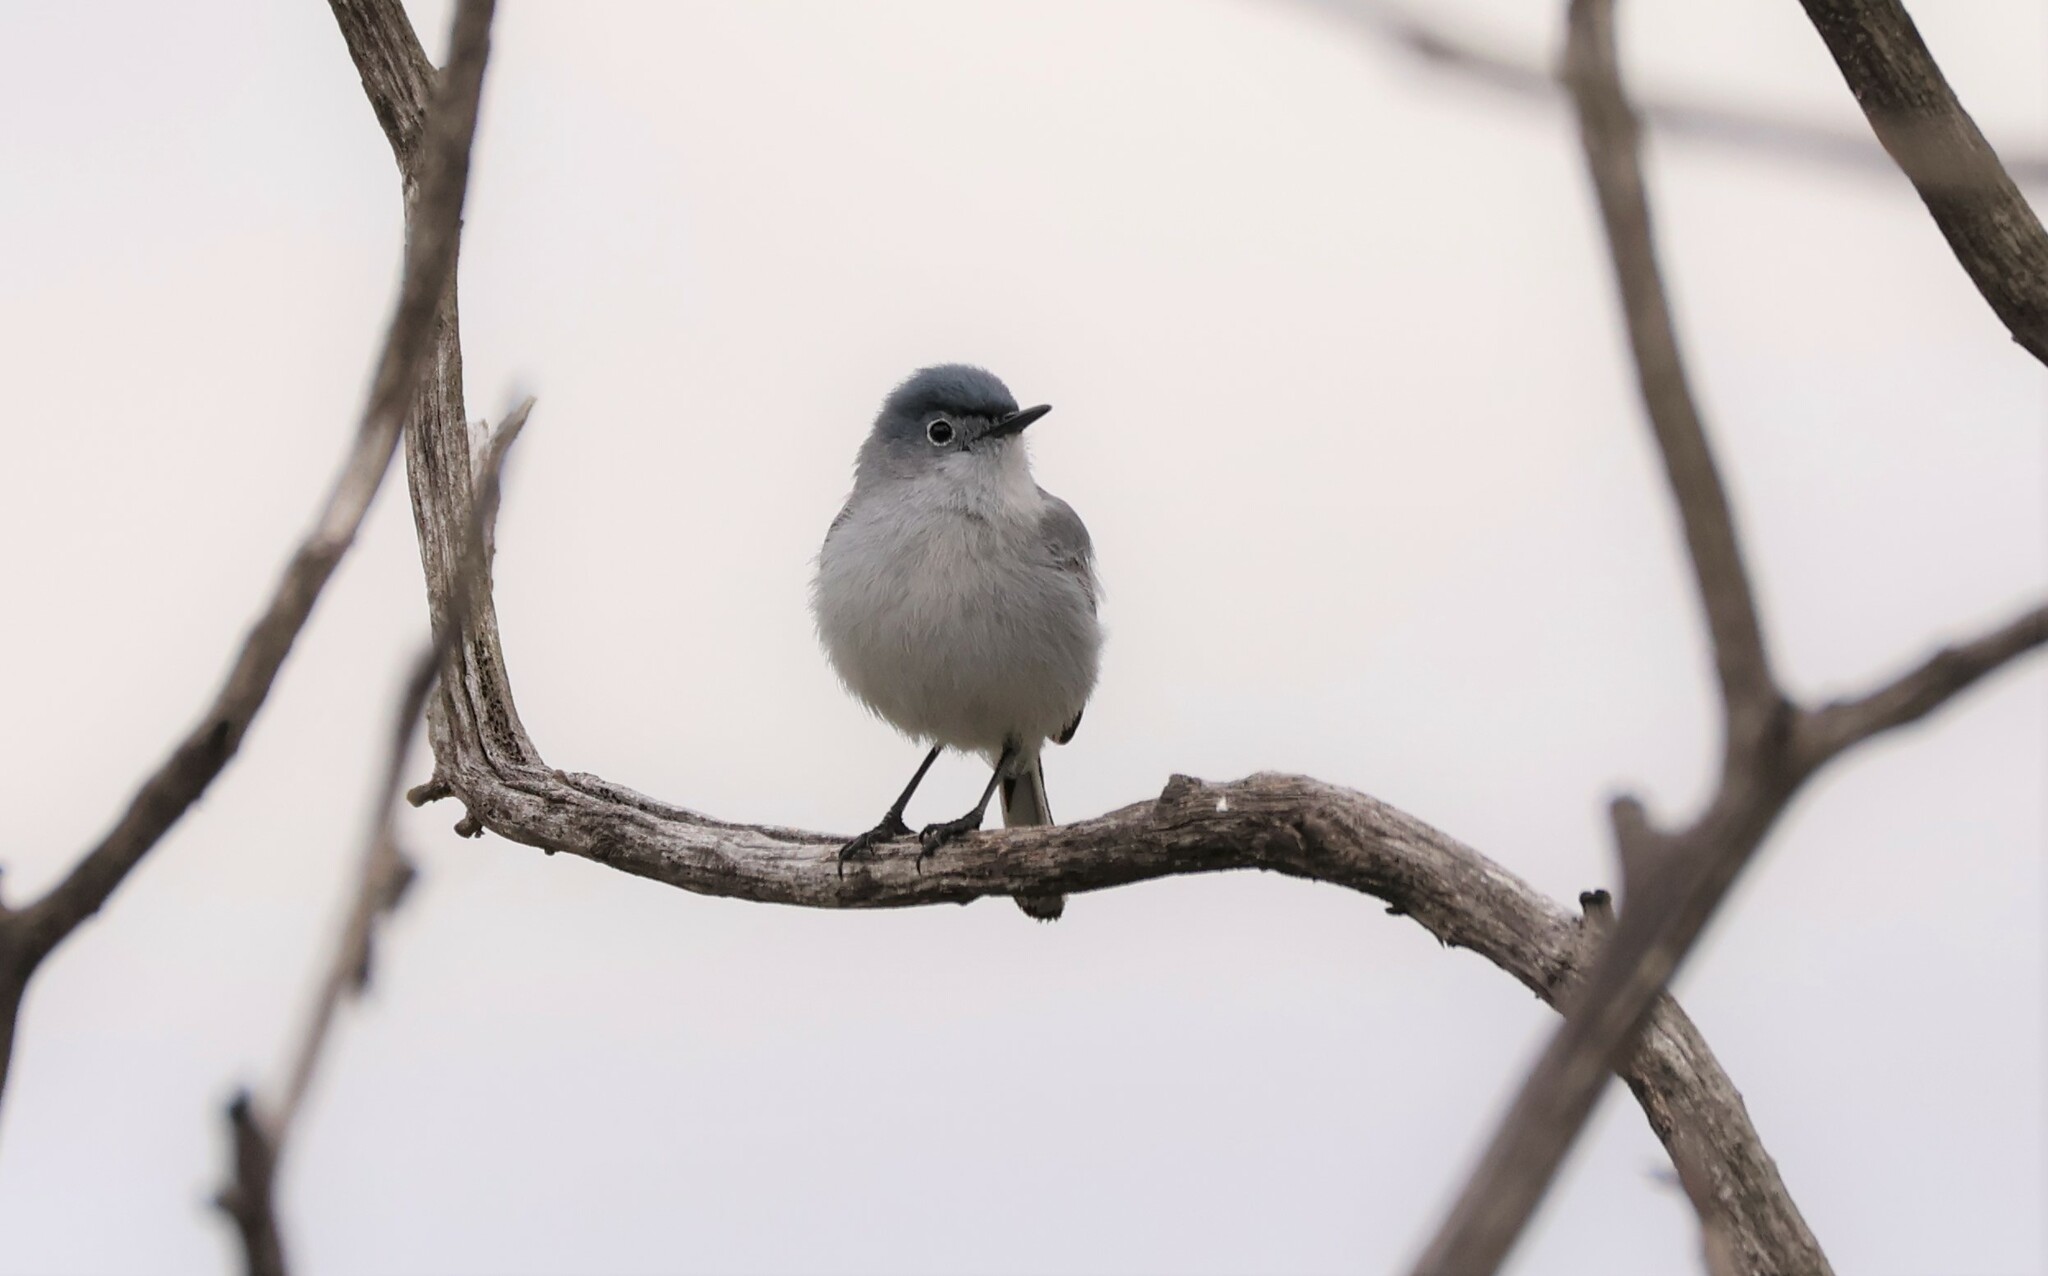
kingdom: Animalia
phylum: Chordata
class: Aves
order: Passeriformes
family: Polioptilidae
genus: Polioptila
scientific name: Polioptila caerulea
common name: Blue-gray gnatcatcher
